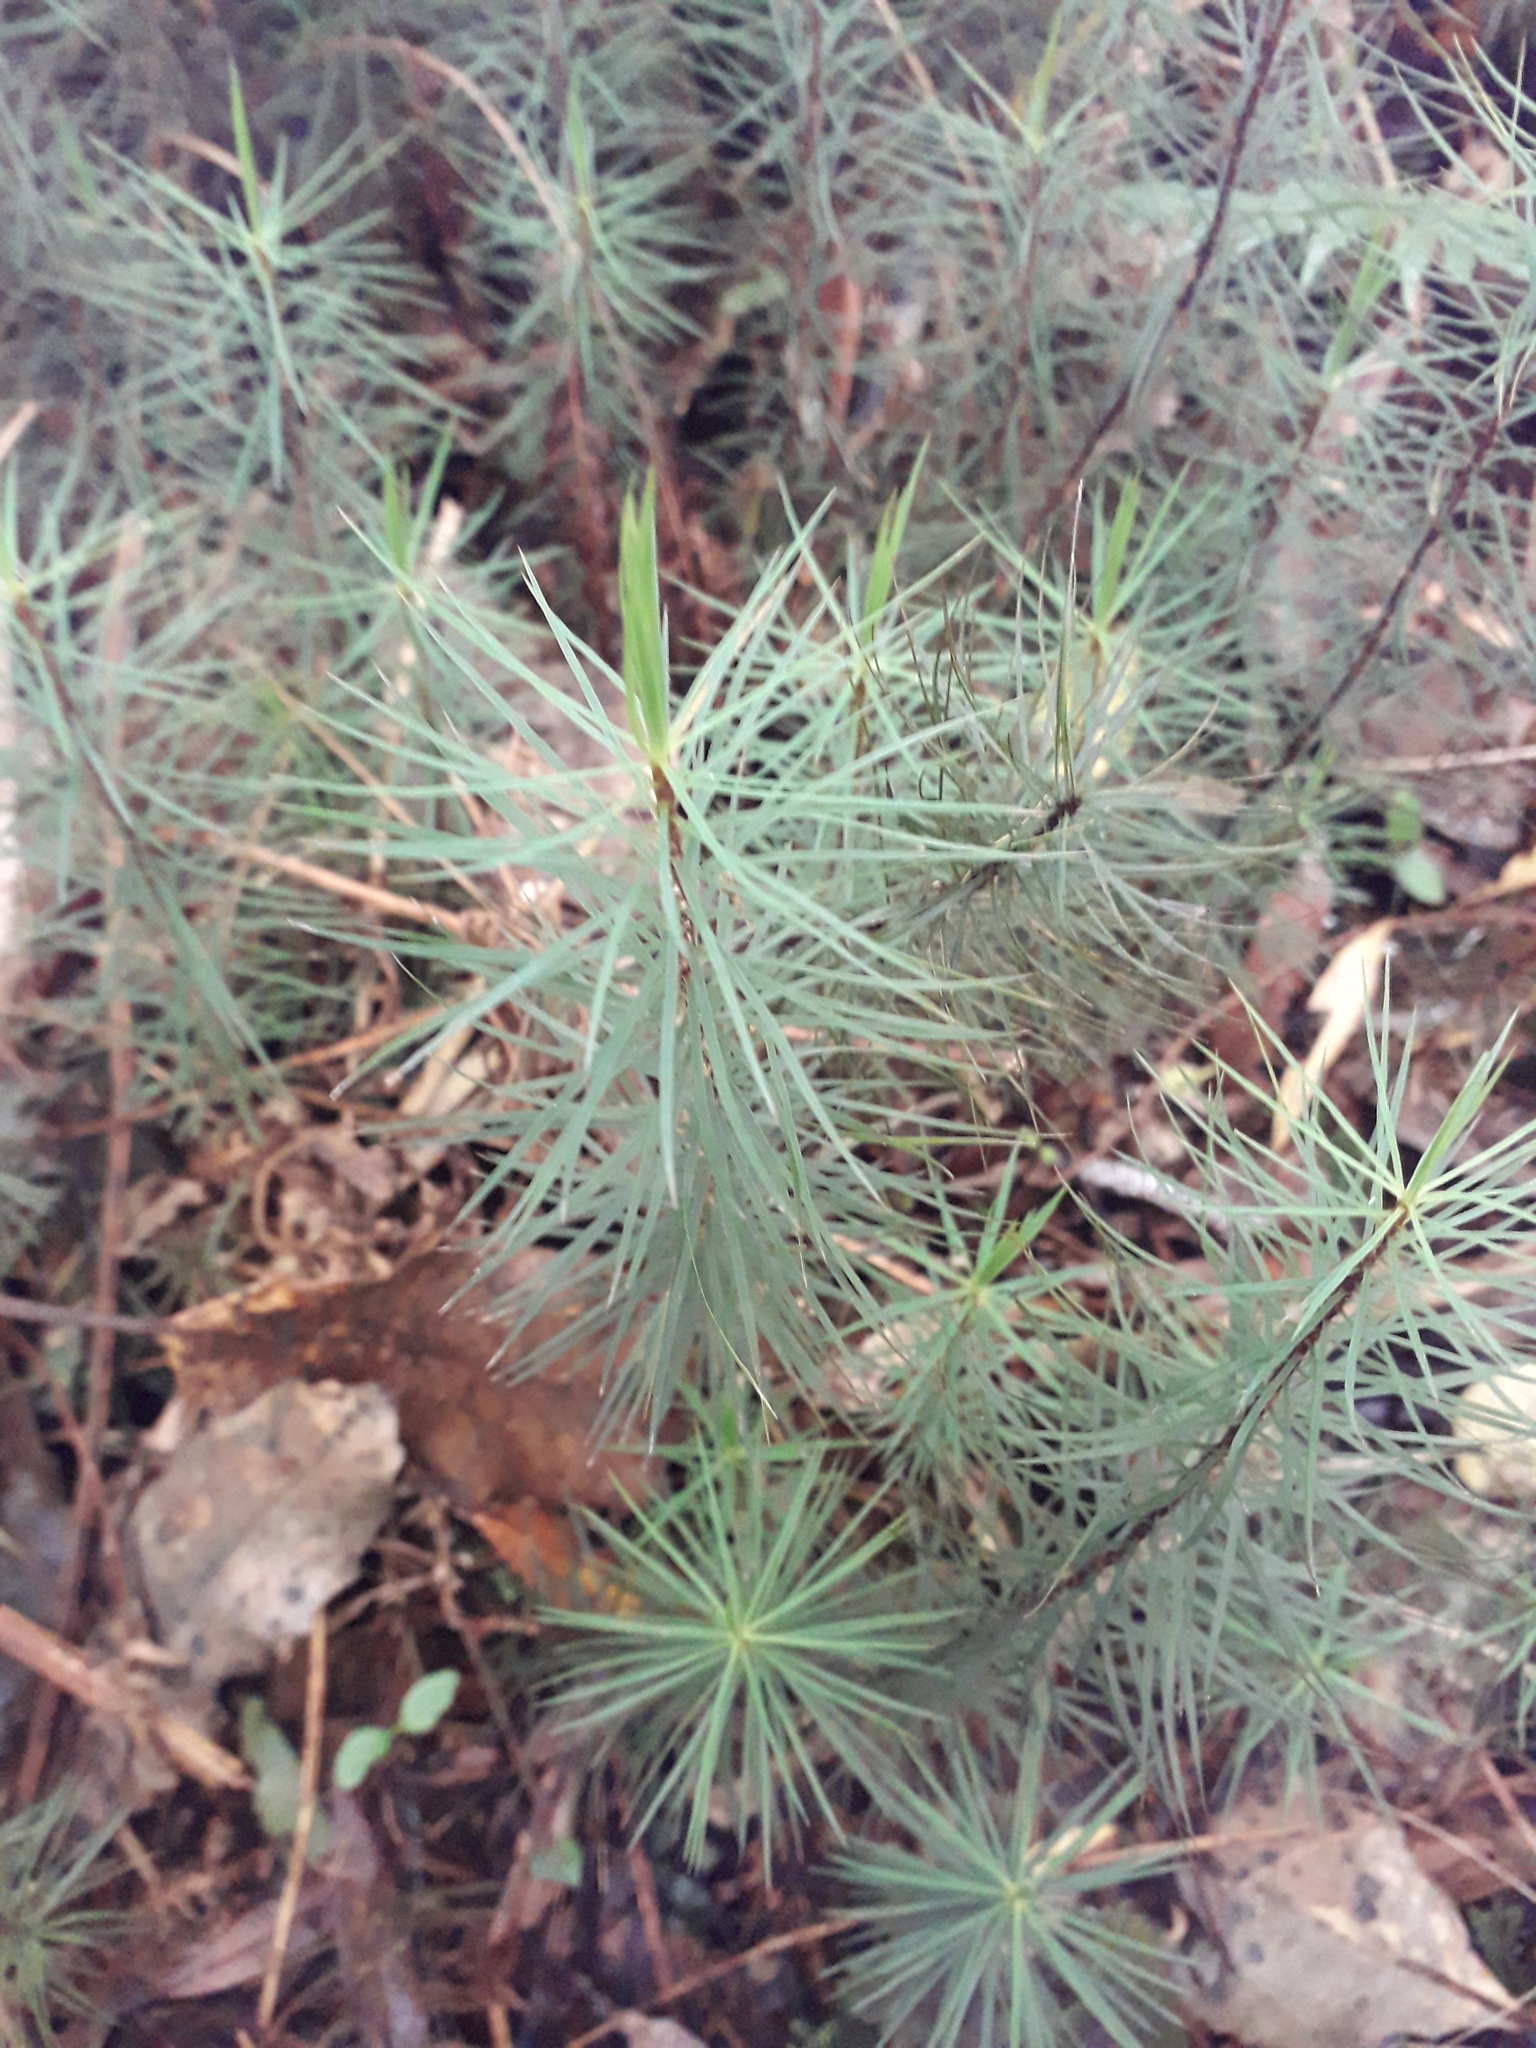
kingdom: Plantae
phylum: Bryophyta
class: Polytrichopsida
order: Polytrichales
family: Polytrichaceae
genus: Dawsonia
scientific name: Dawsonia superba
